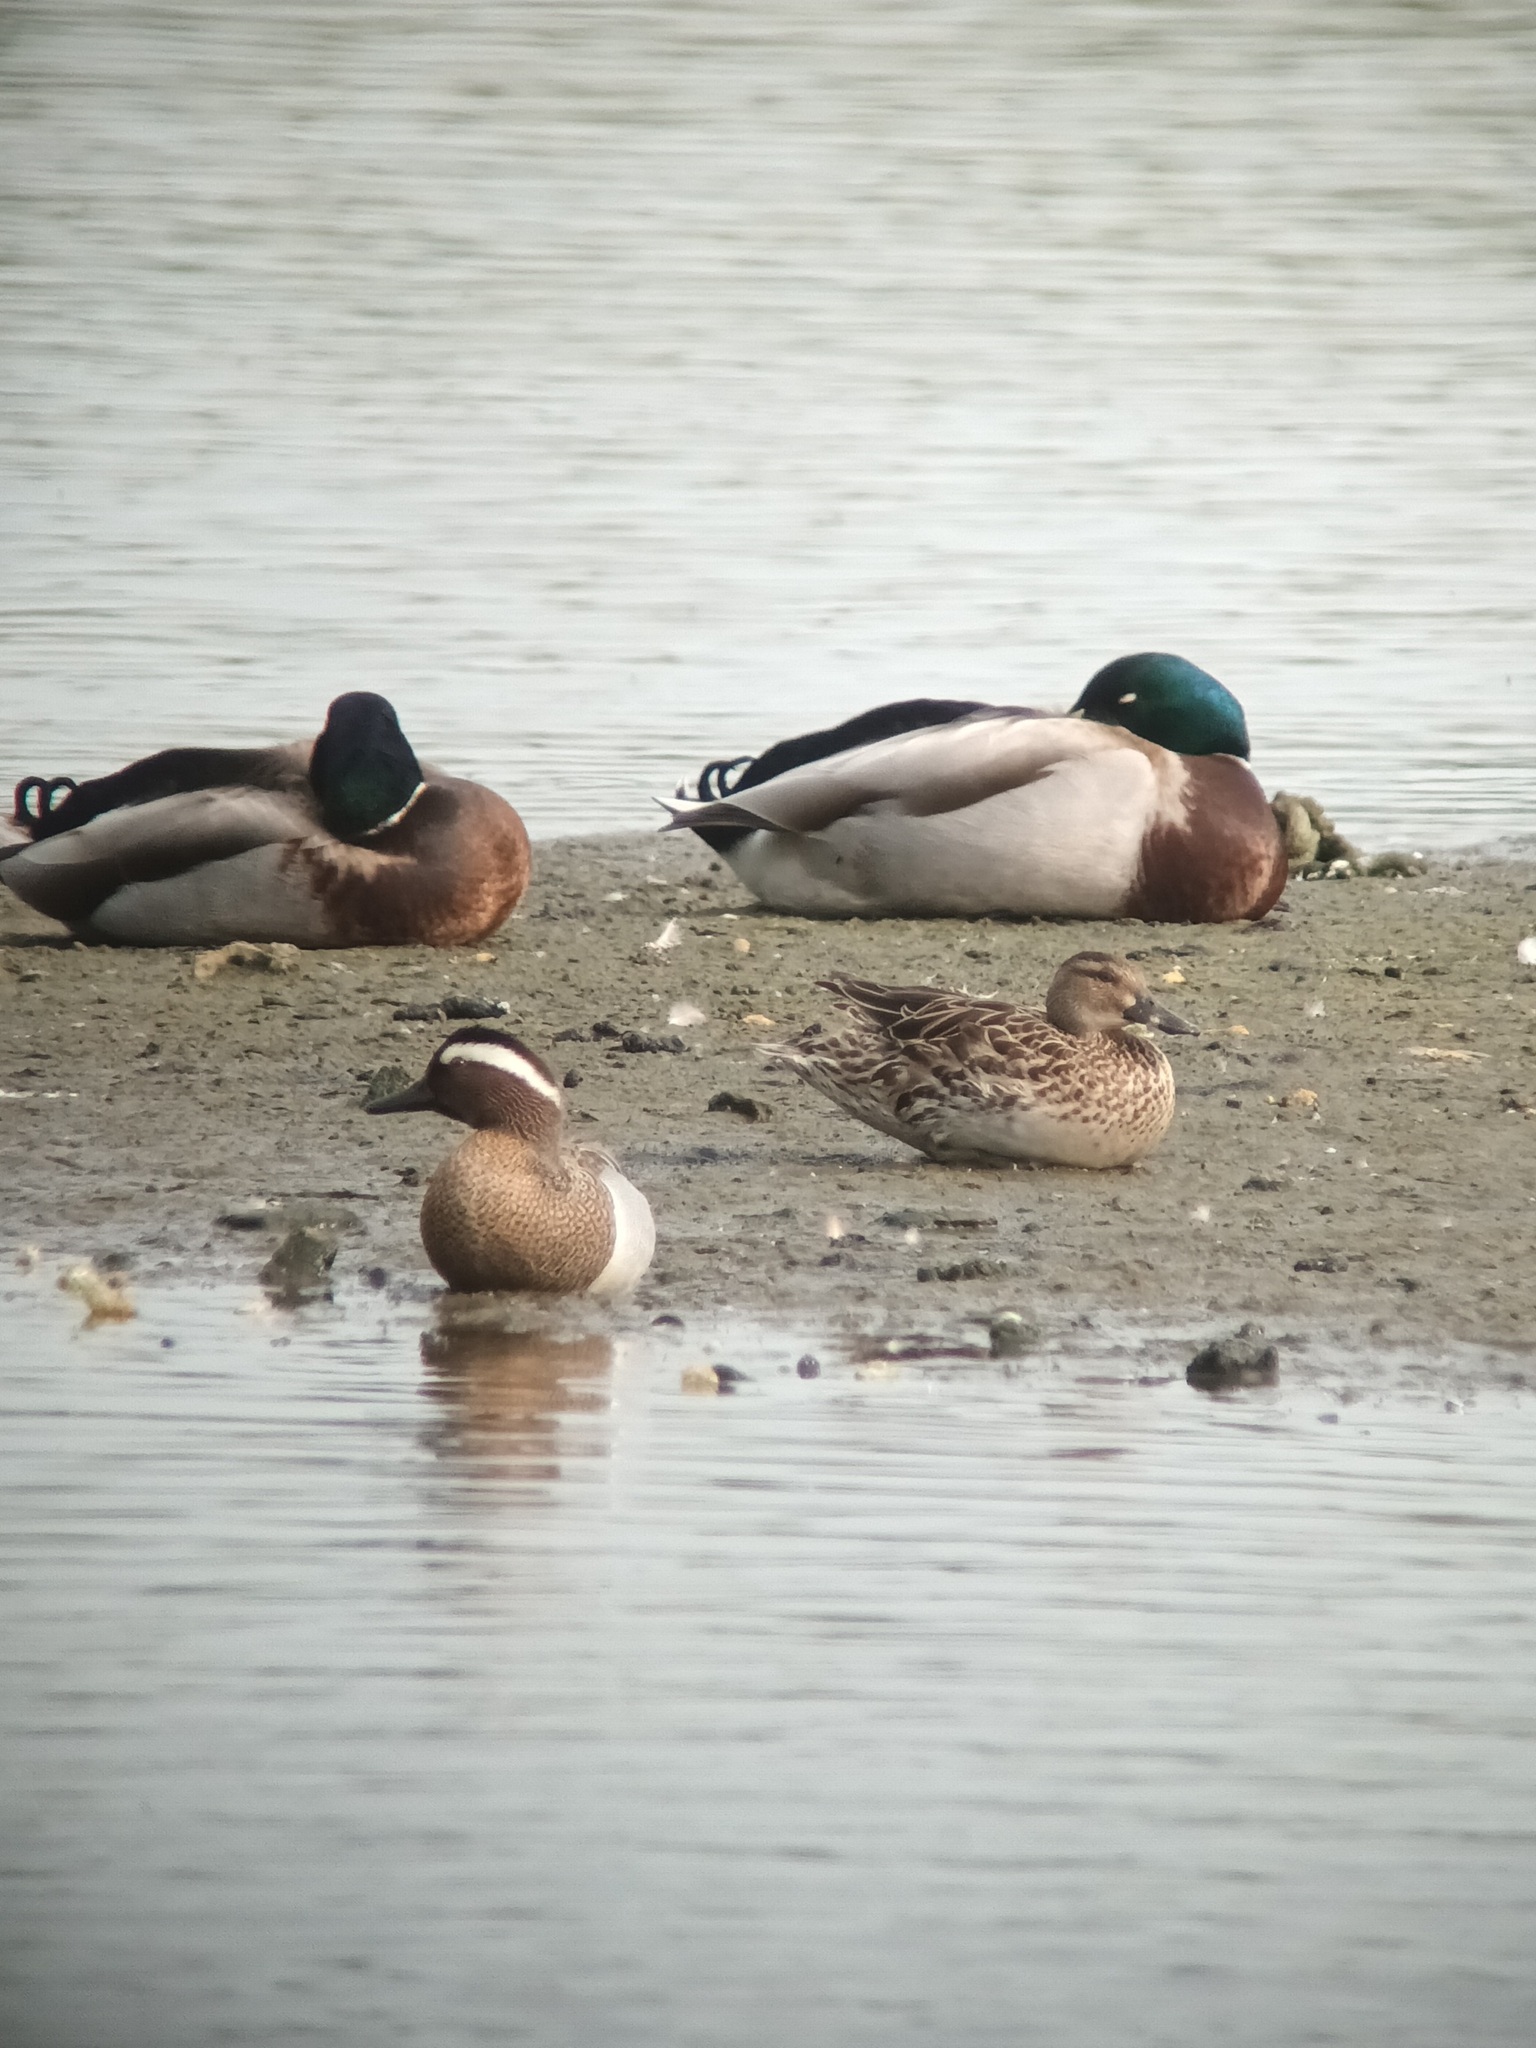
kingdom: Animalia
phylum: Chordata
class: Aves
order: Anseriformes
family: Anatidae
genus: Spatula
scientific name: Spatula querquedula
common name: Garganey
